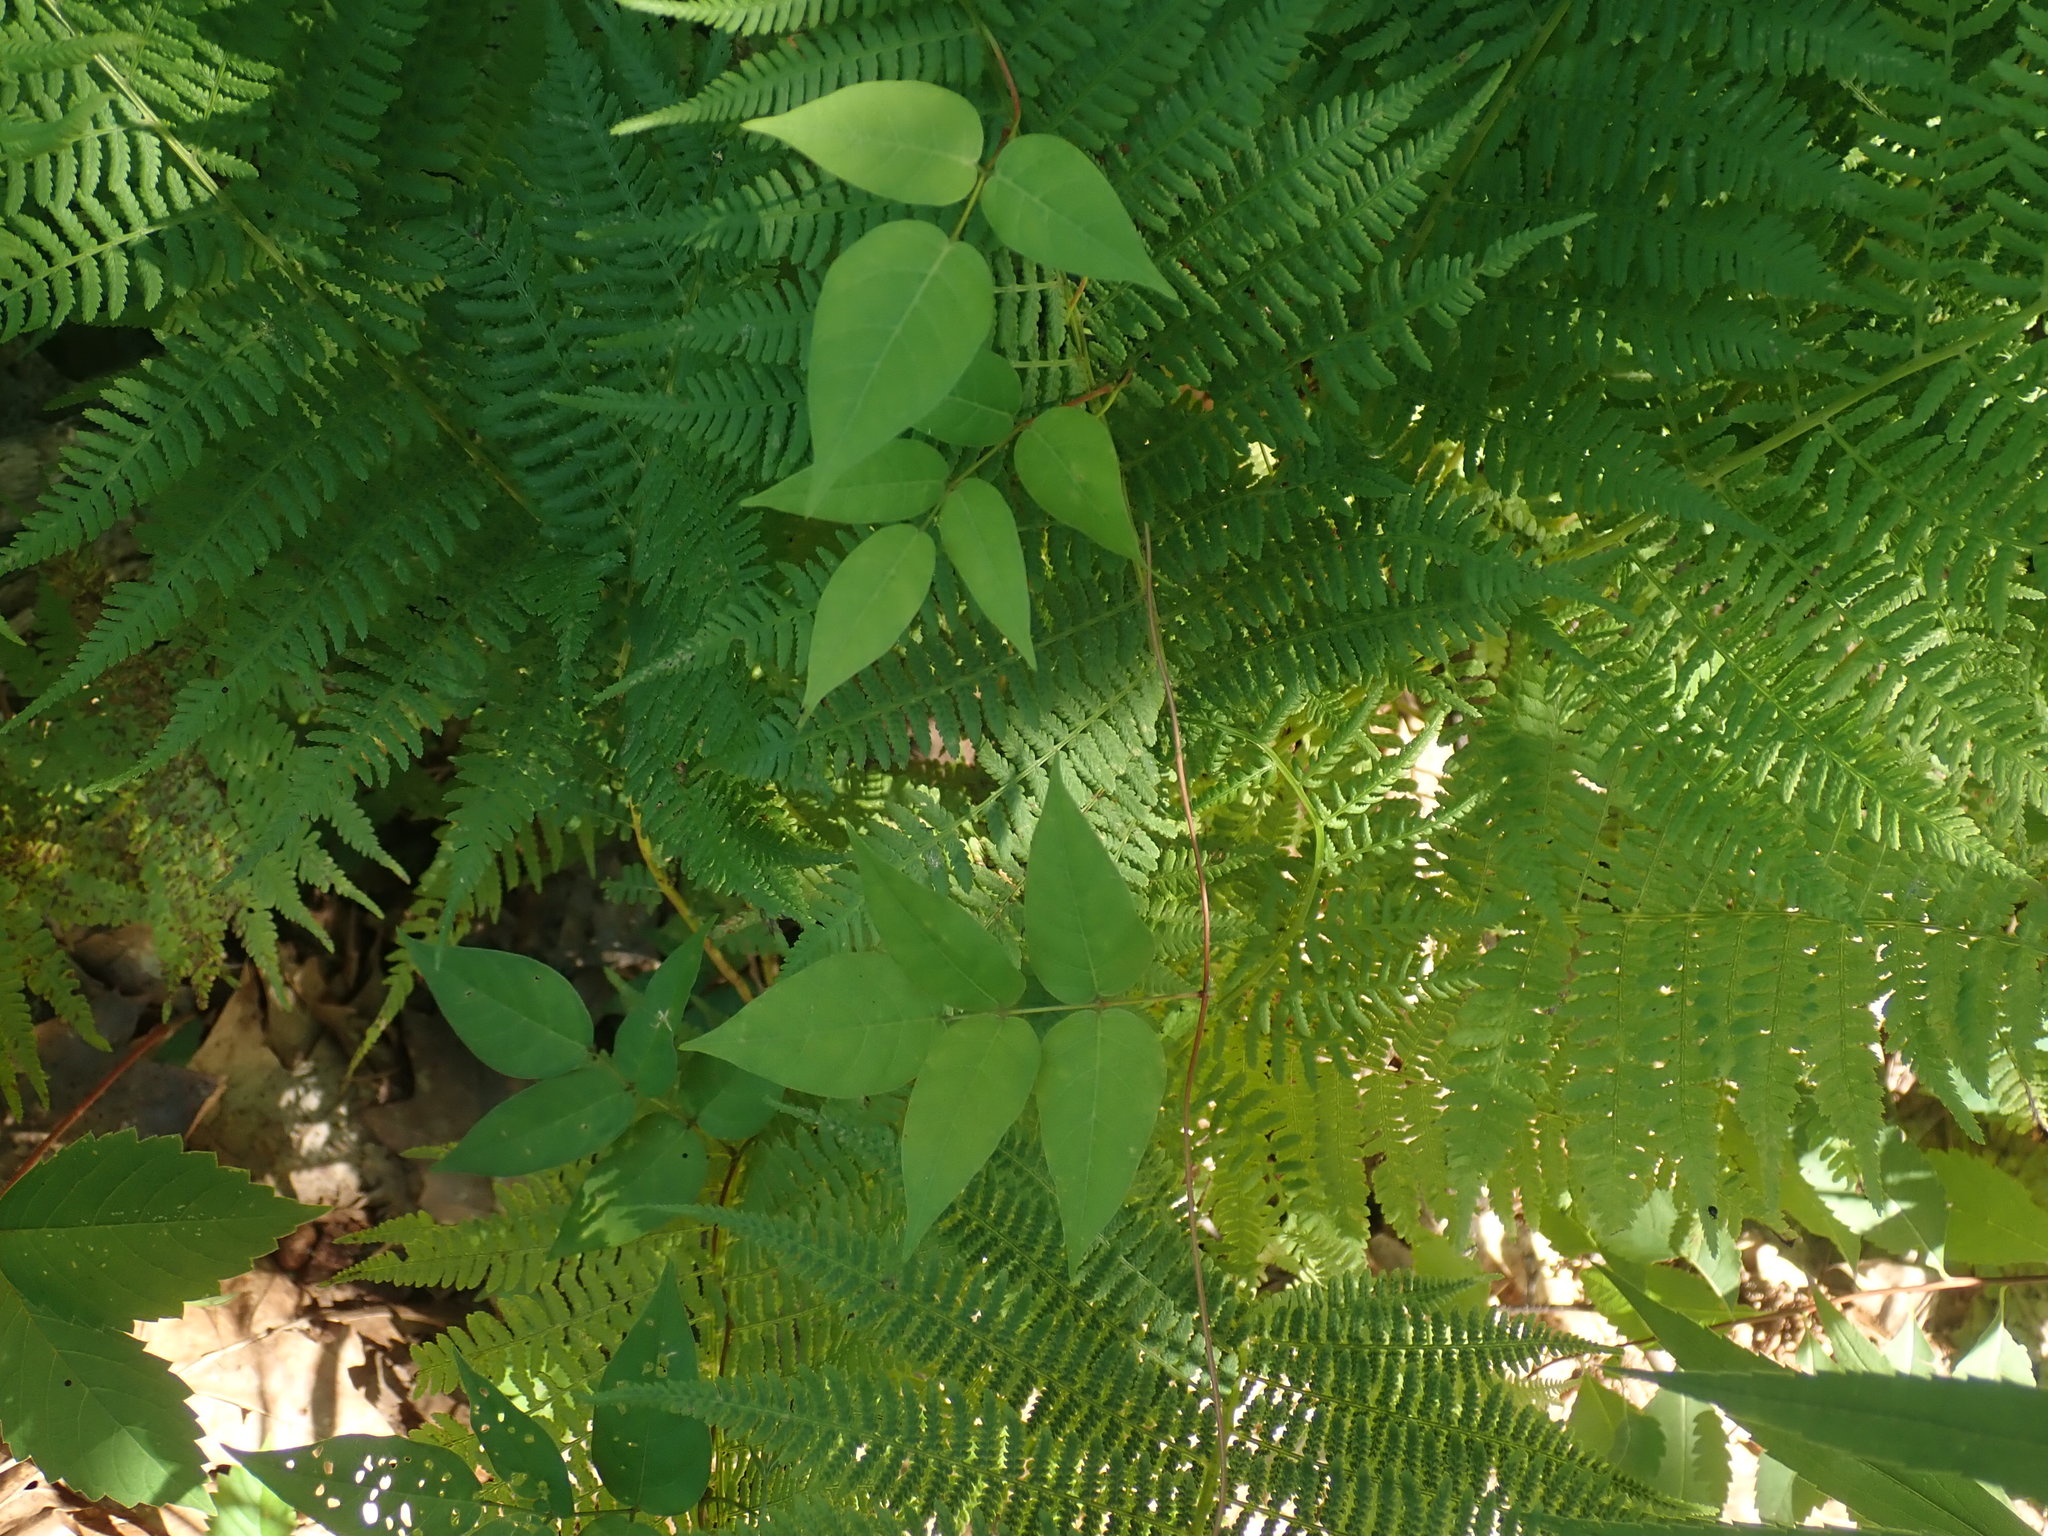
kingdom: Plantae
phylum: Tracheophyta
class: Magnoliopsida
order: Fabales
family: Fabaceae
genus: Apios
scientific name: Apios americana
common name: American potato-bean
